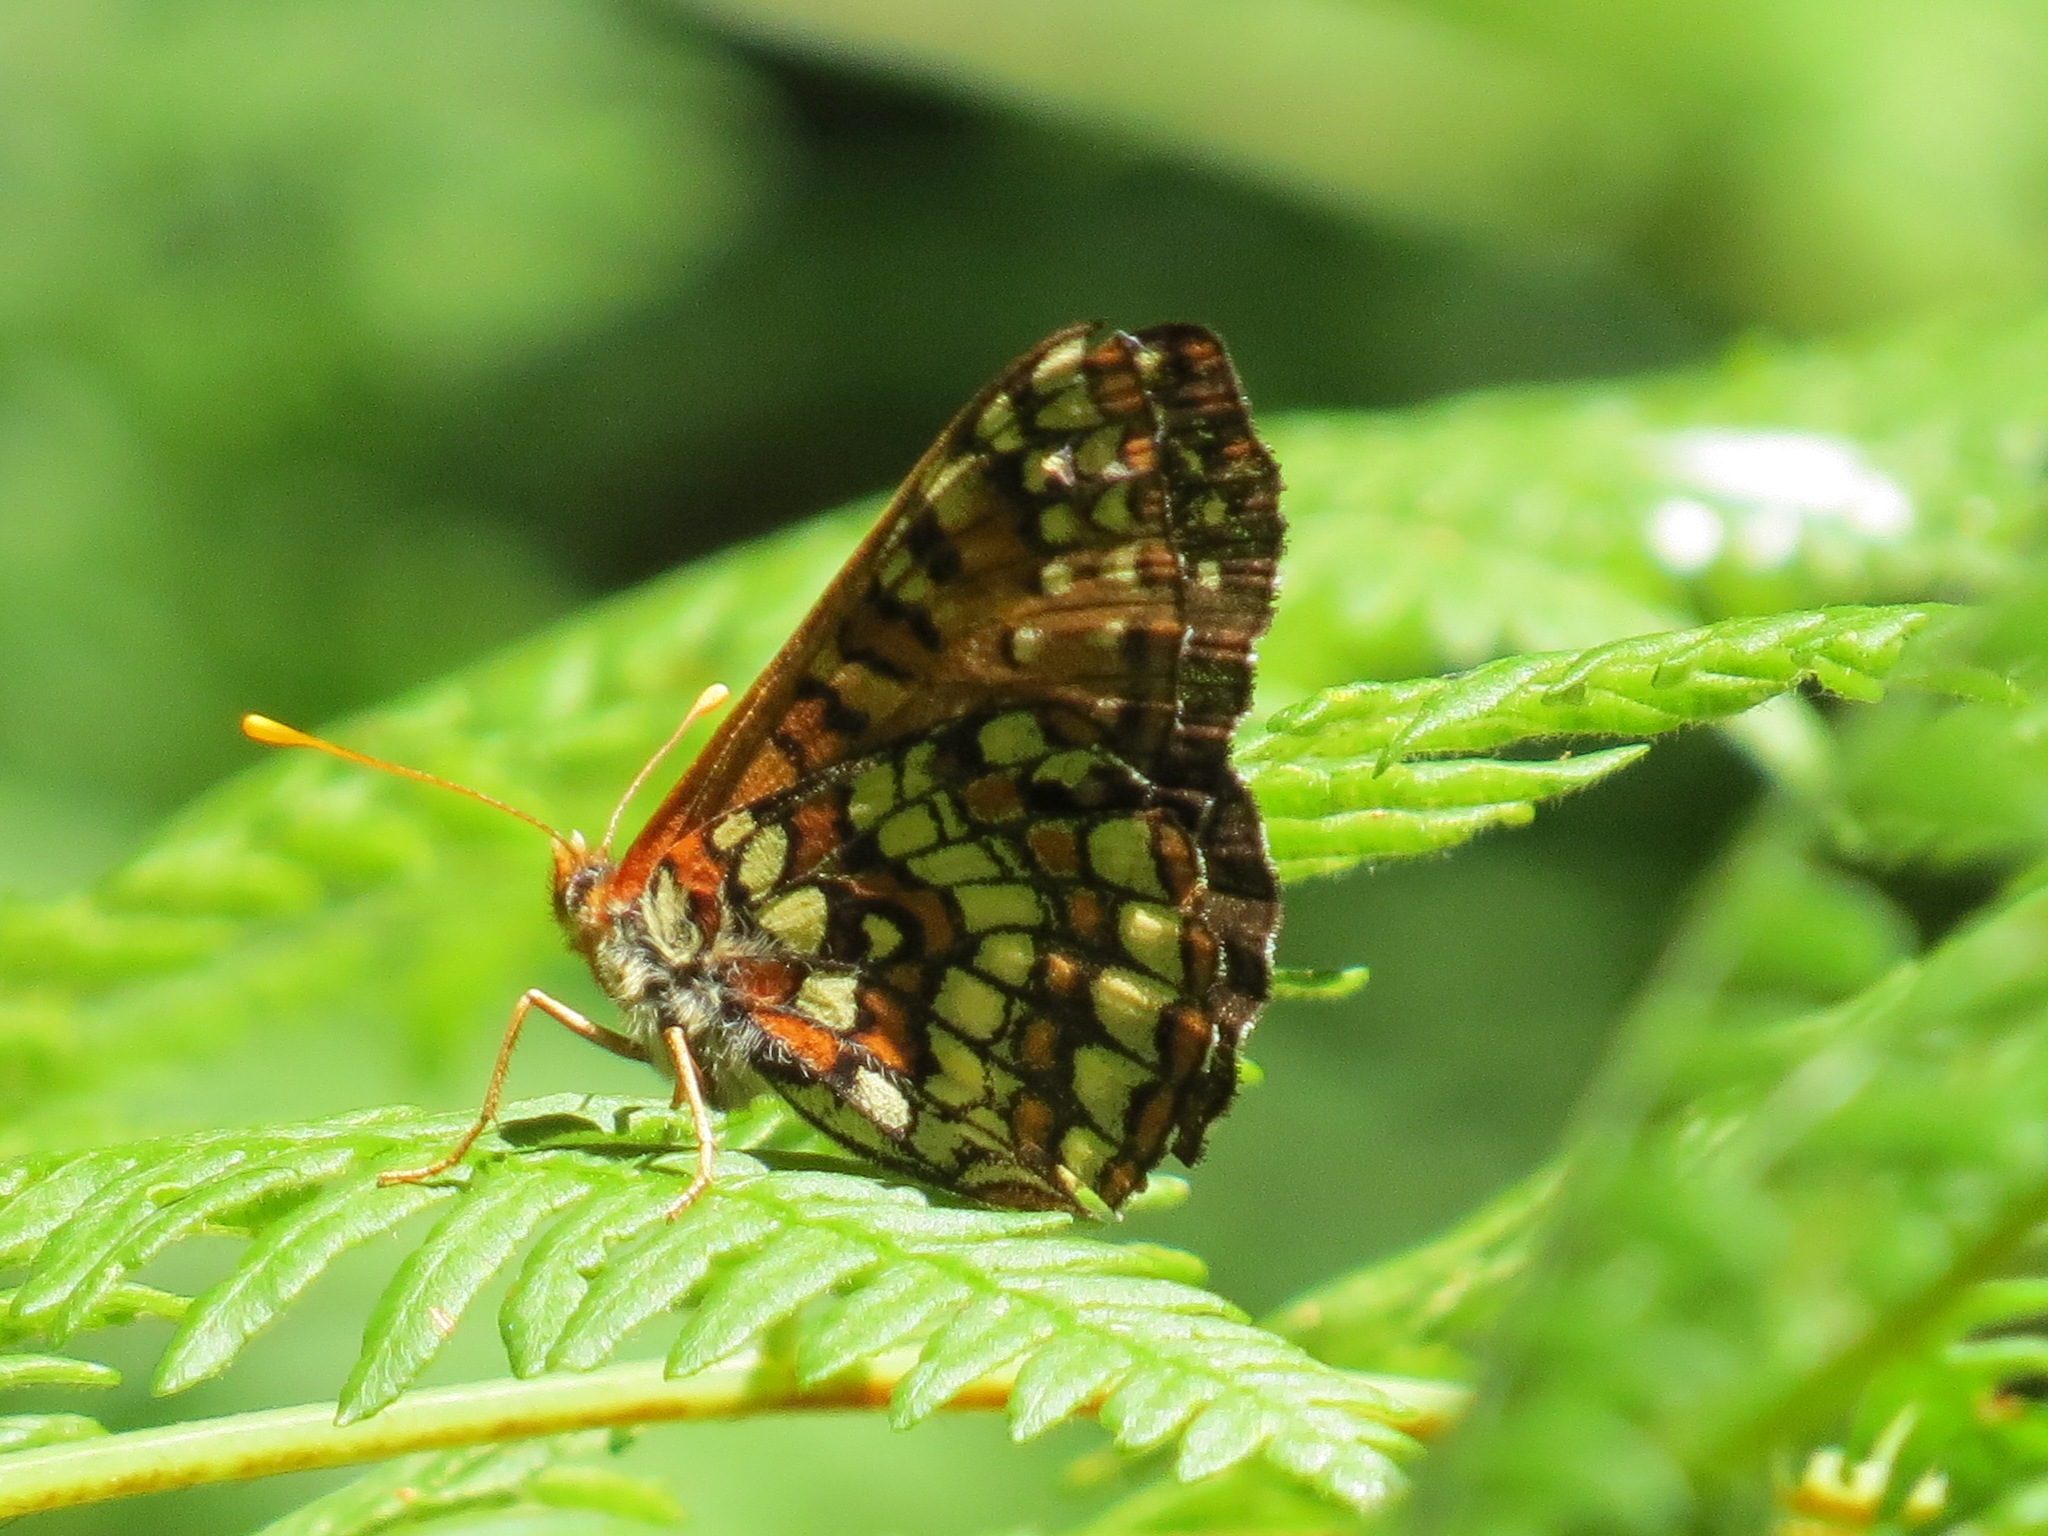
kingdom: Animalia
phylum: Arthropoda
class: Insecta
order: Lepidoptera
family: Nymphalidae
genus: Occidryas
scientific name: Occidryas chalcedona
